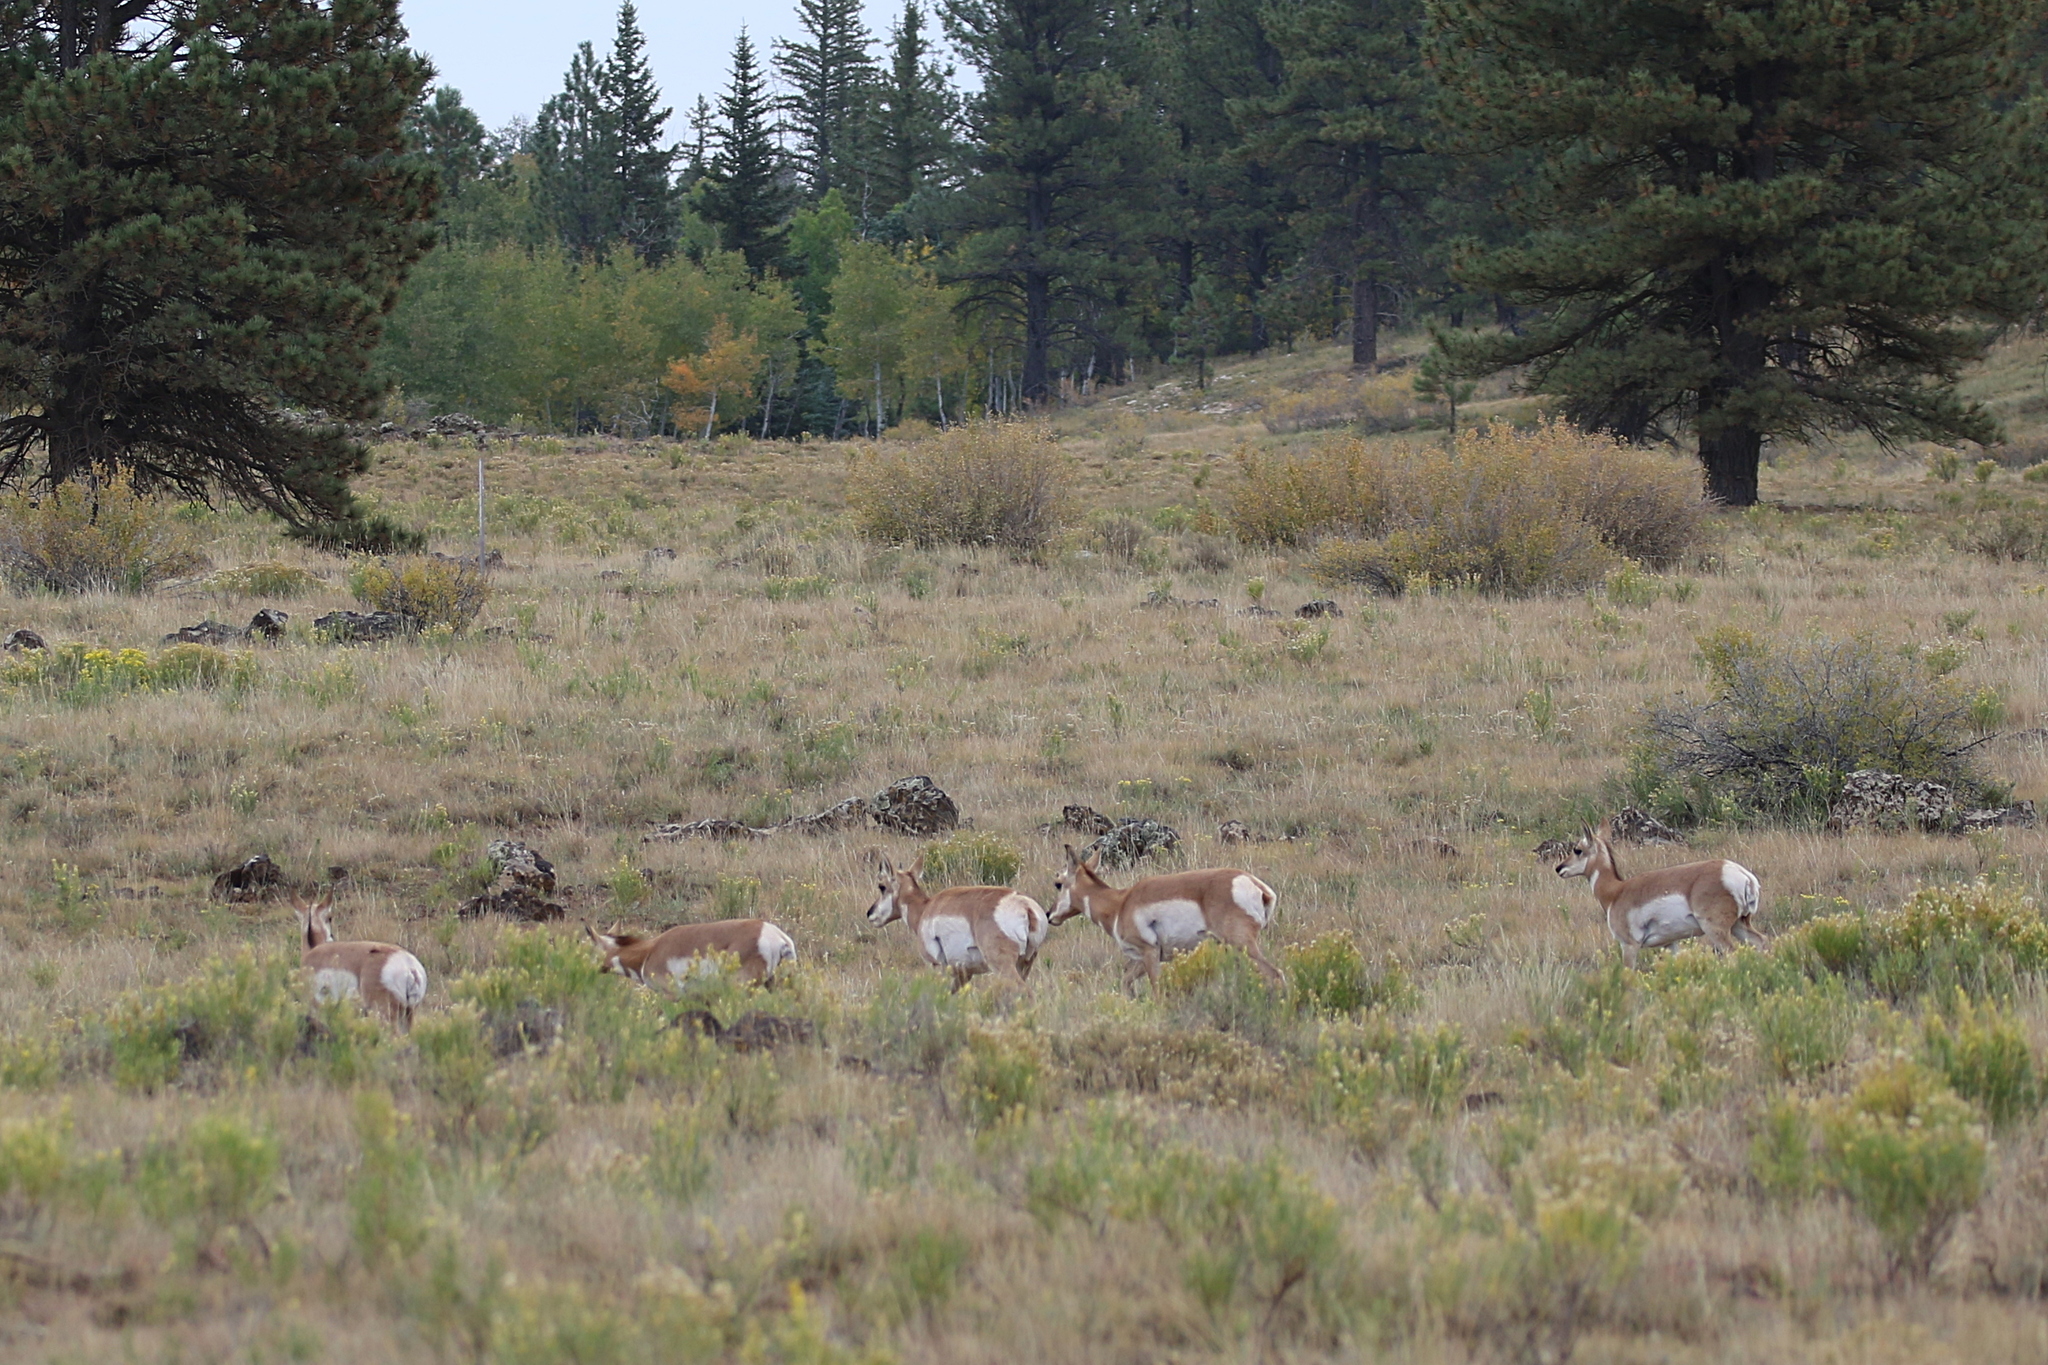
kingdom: Animalia
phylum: Chordata
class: Mammalia
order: Artiodactyla
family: Antilocapridae
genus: Antilocapra
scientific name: Antilocapra americana
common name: Pronghorn
